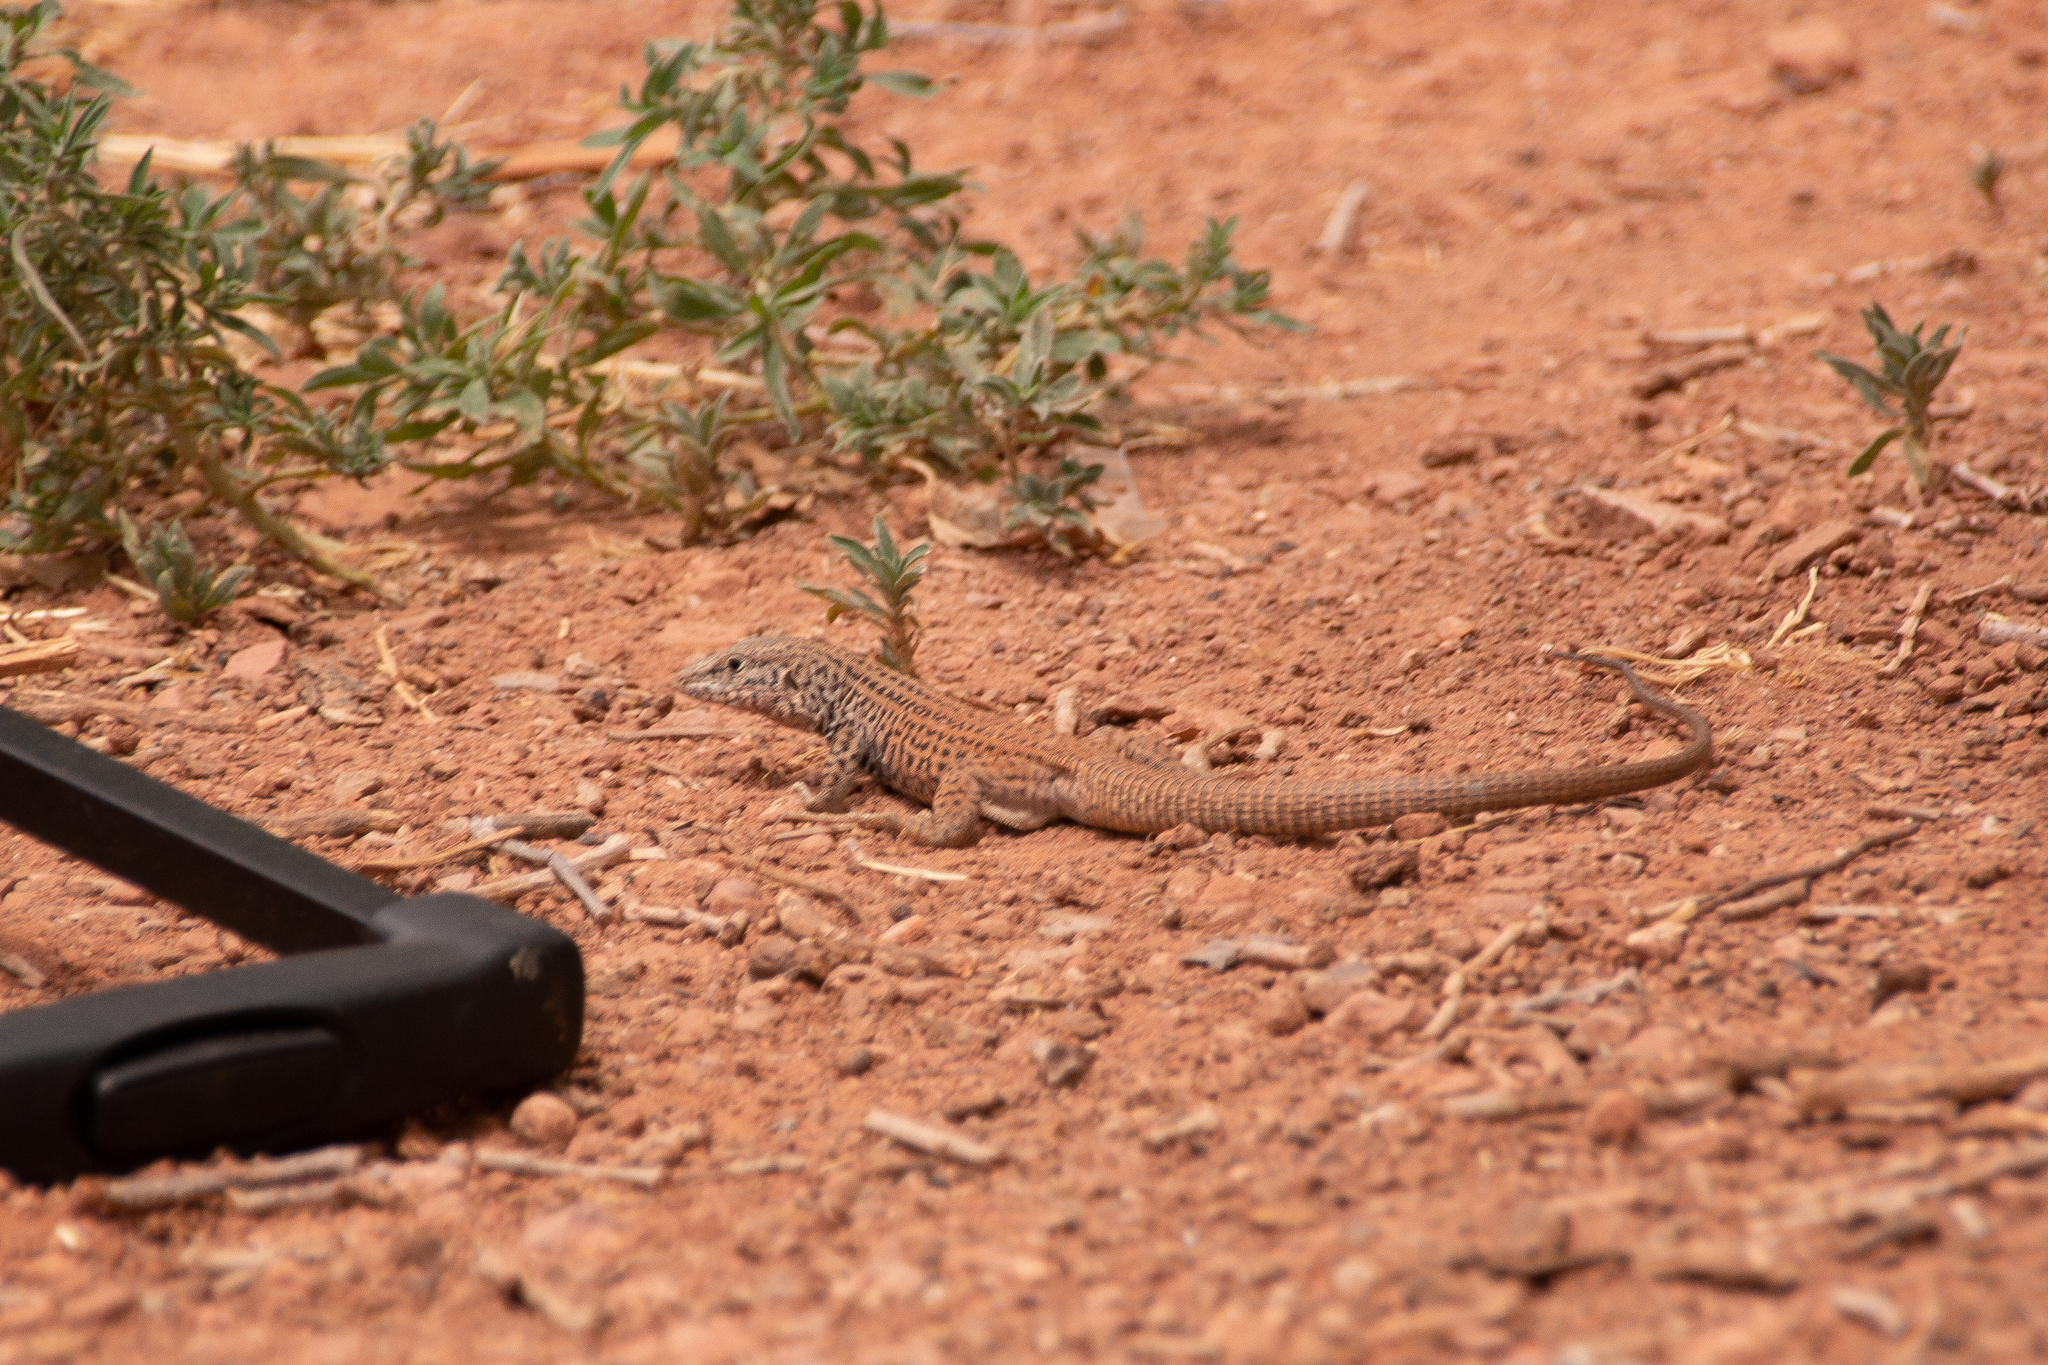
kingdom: Animalia
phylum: Chordata
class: Squamata
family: Teiidae
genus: Aspidoscelis
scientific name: Aspidoscelis tigris
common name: Tiger whiptail
